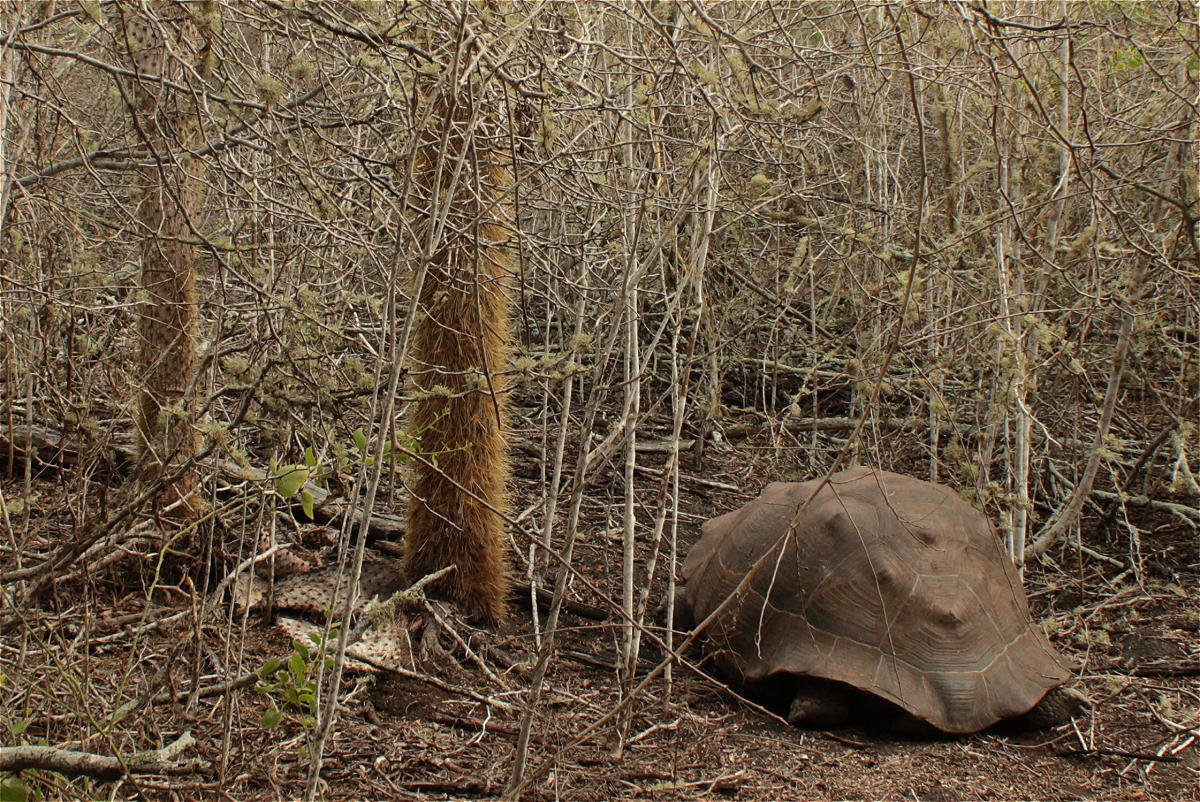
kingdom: Animalia
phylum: Chordata
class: Testudines
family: Testudinidae
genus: Chelonoidis
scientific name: Chelonoidis guntheri
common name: Sierra negra giant tortoise
